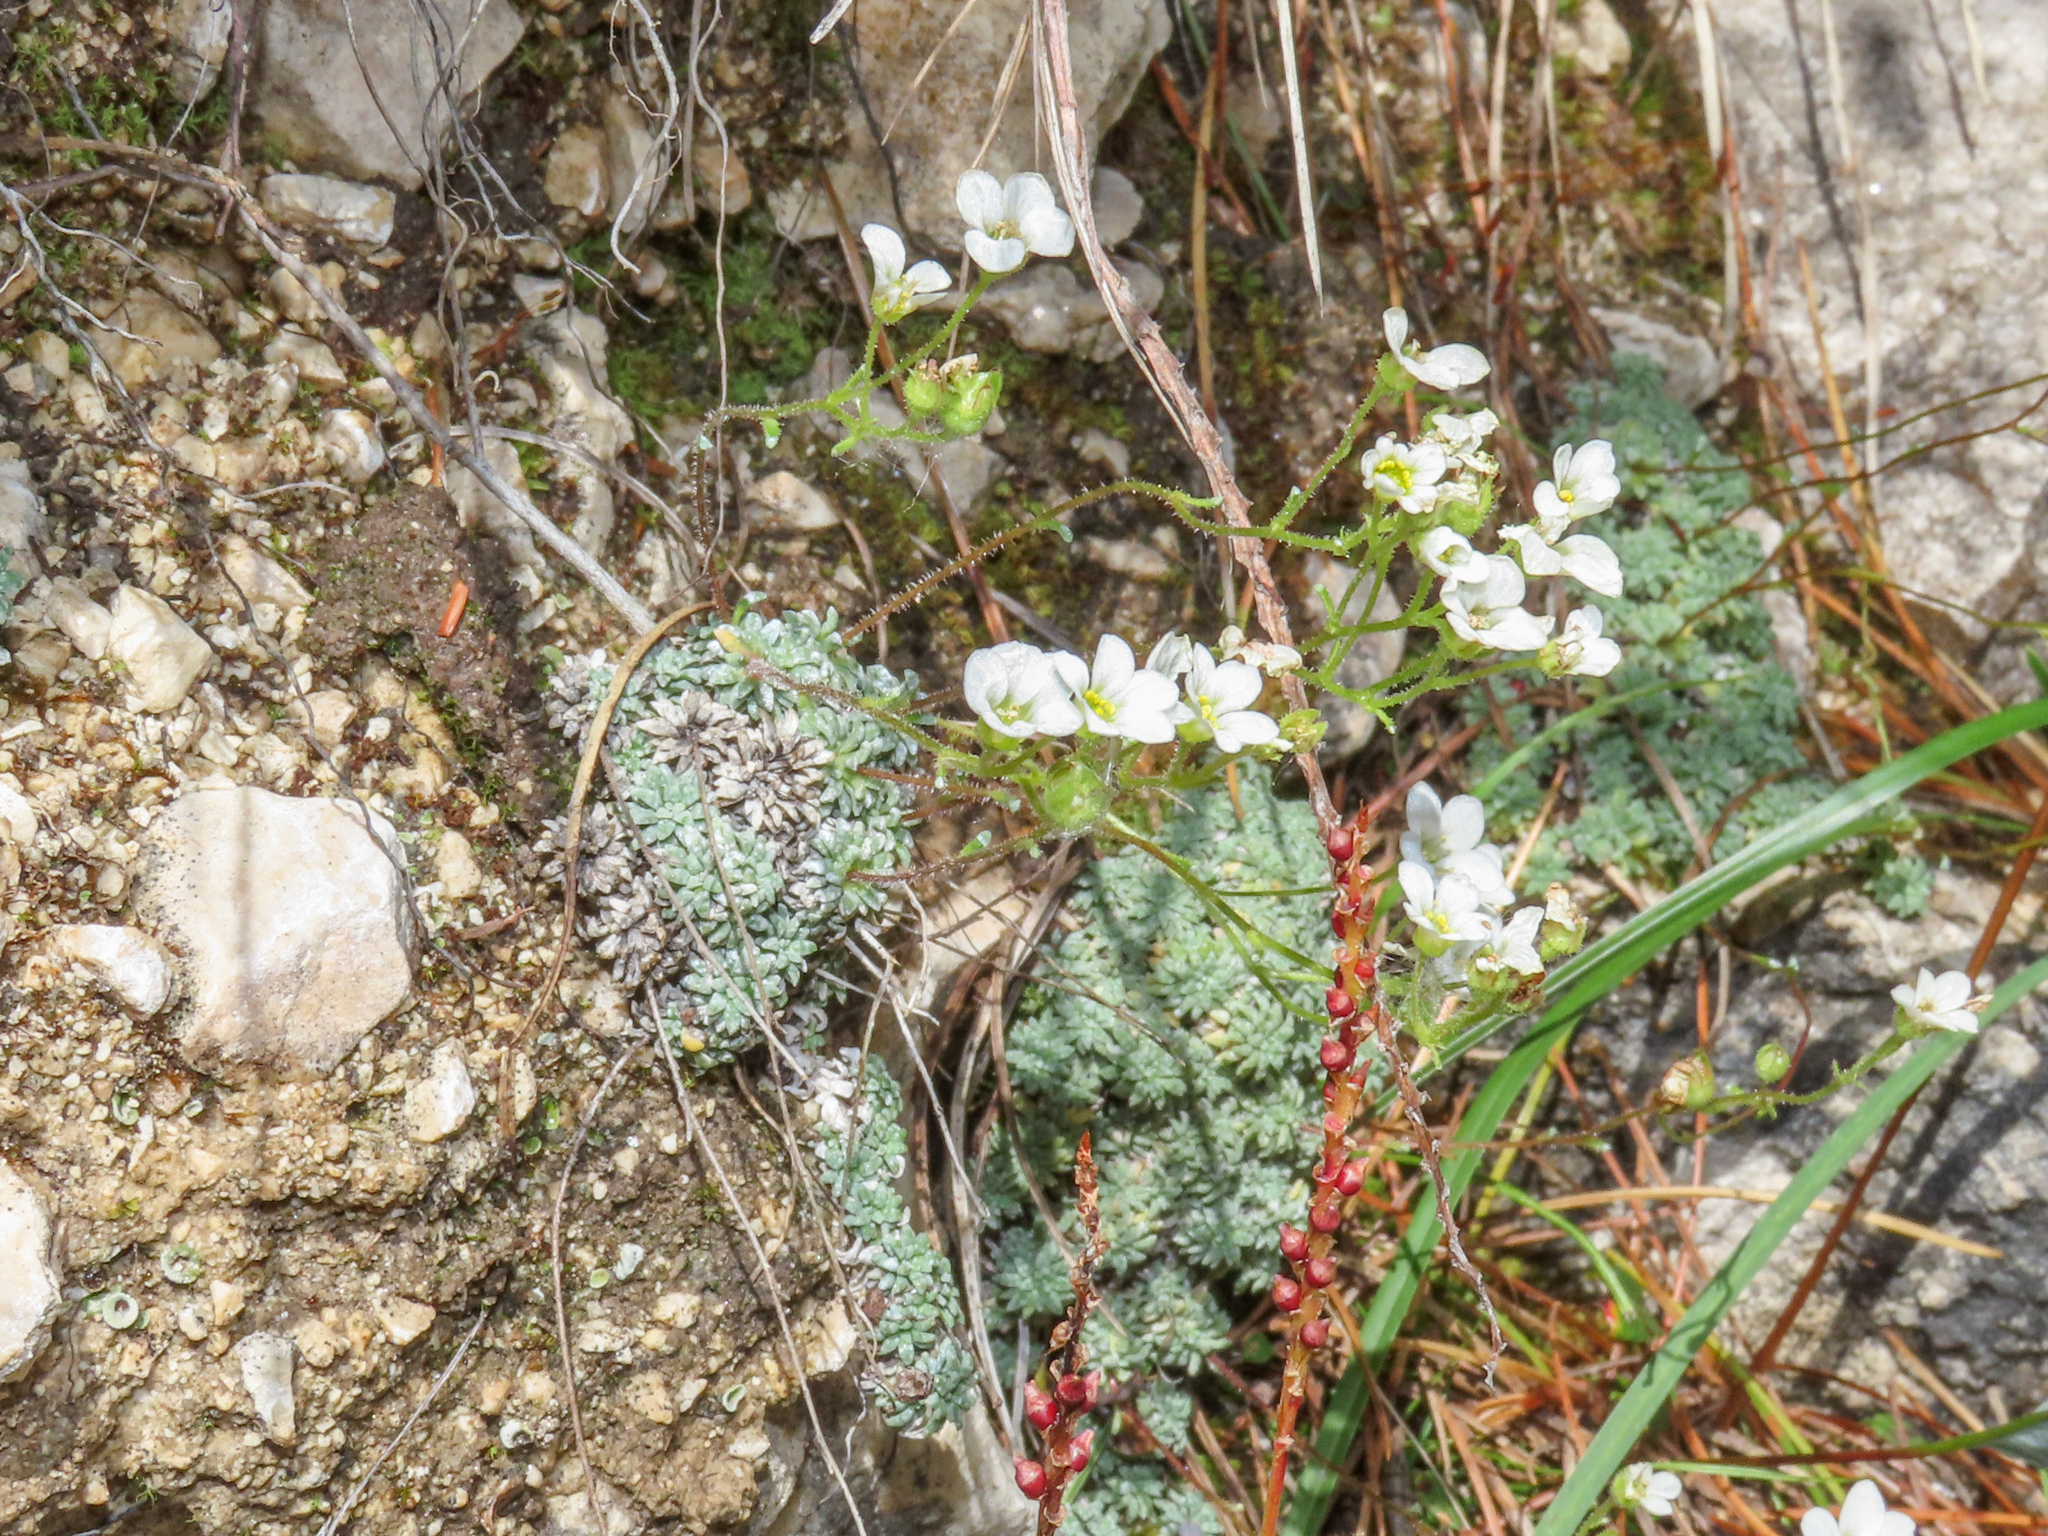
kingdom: Plantae
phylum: Tracheophyta
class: Magnoliopsida
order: Saxifragales
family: Saxifragaceae
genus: Saxifraga
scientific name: Saxifraga caesia
